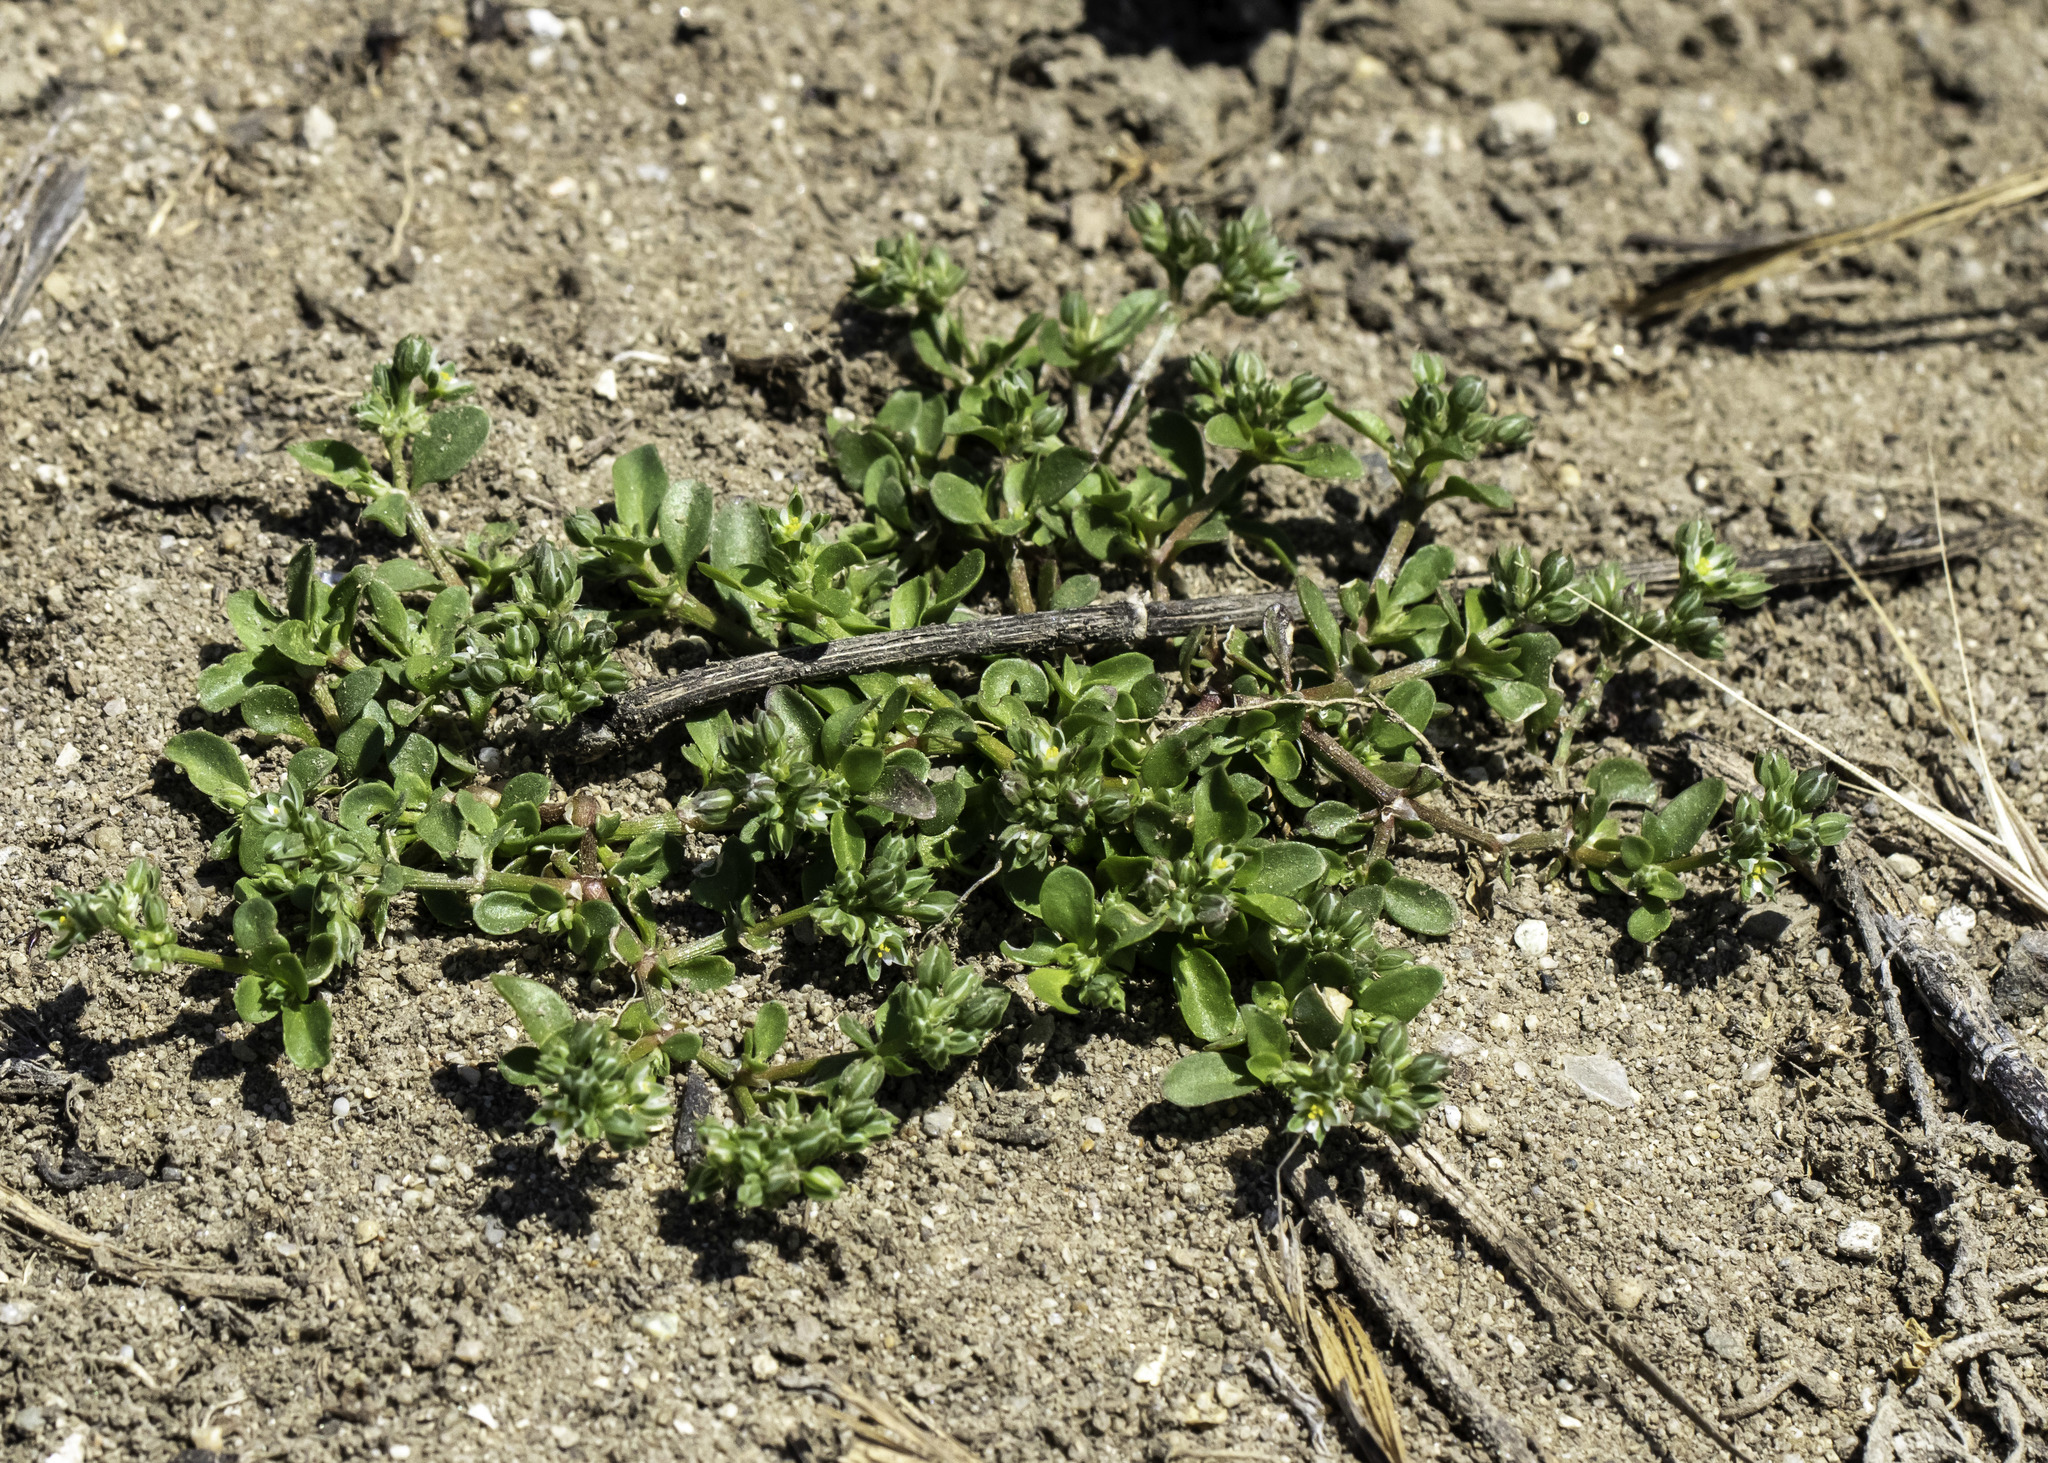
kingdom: Plantae
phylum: Tracheophyta
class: Magnoliopsida
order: Caryophyllales
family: Caryophyllaceae
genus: Polycarpon
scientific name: Polycarpon tetraphyllum
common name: Four-leaved all-seed
